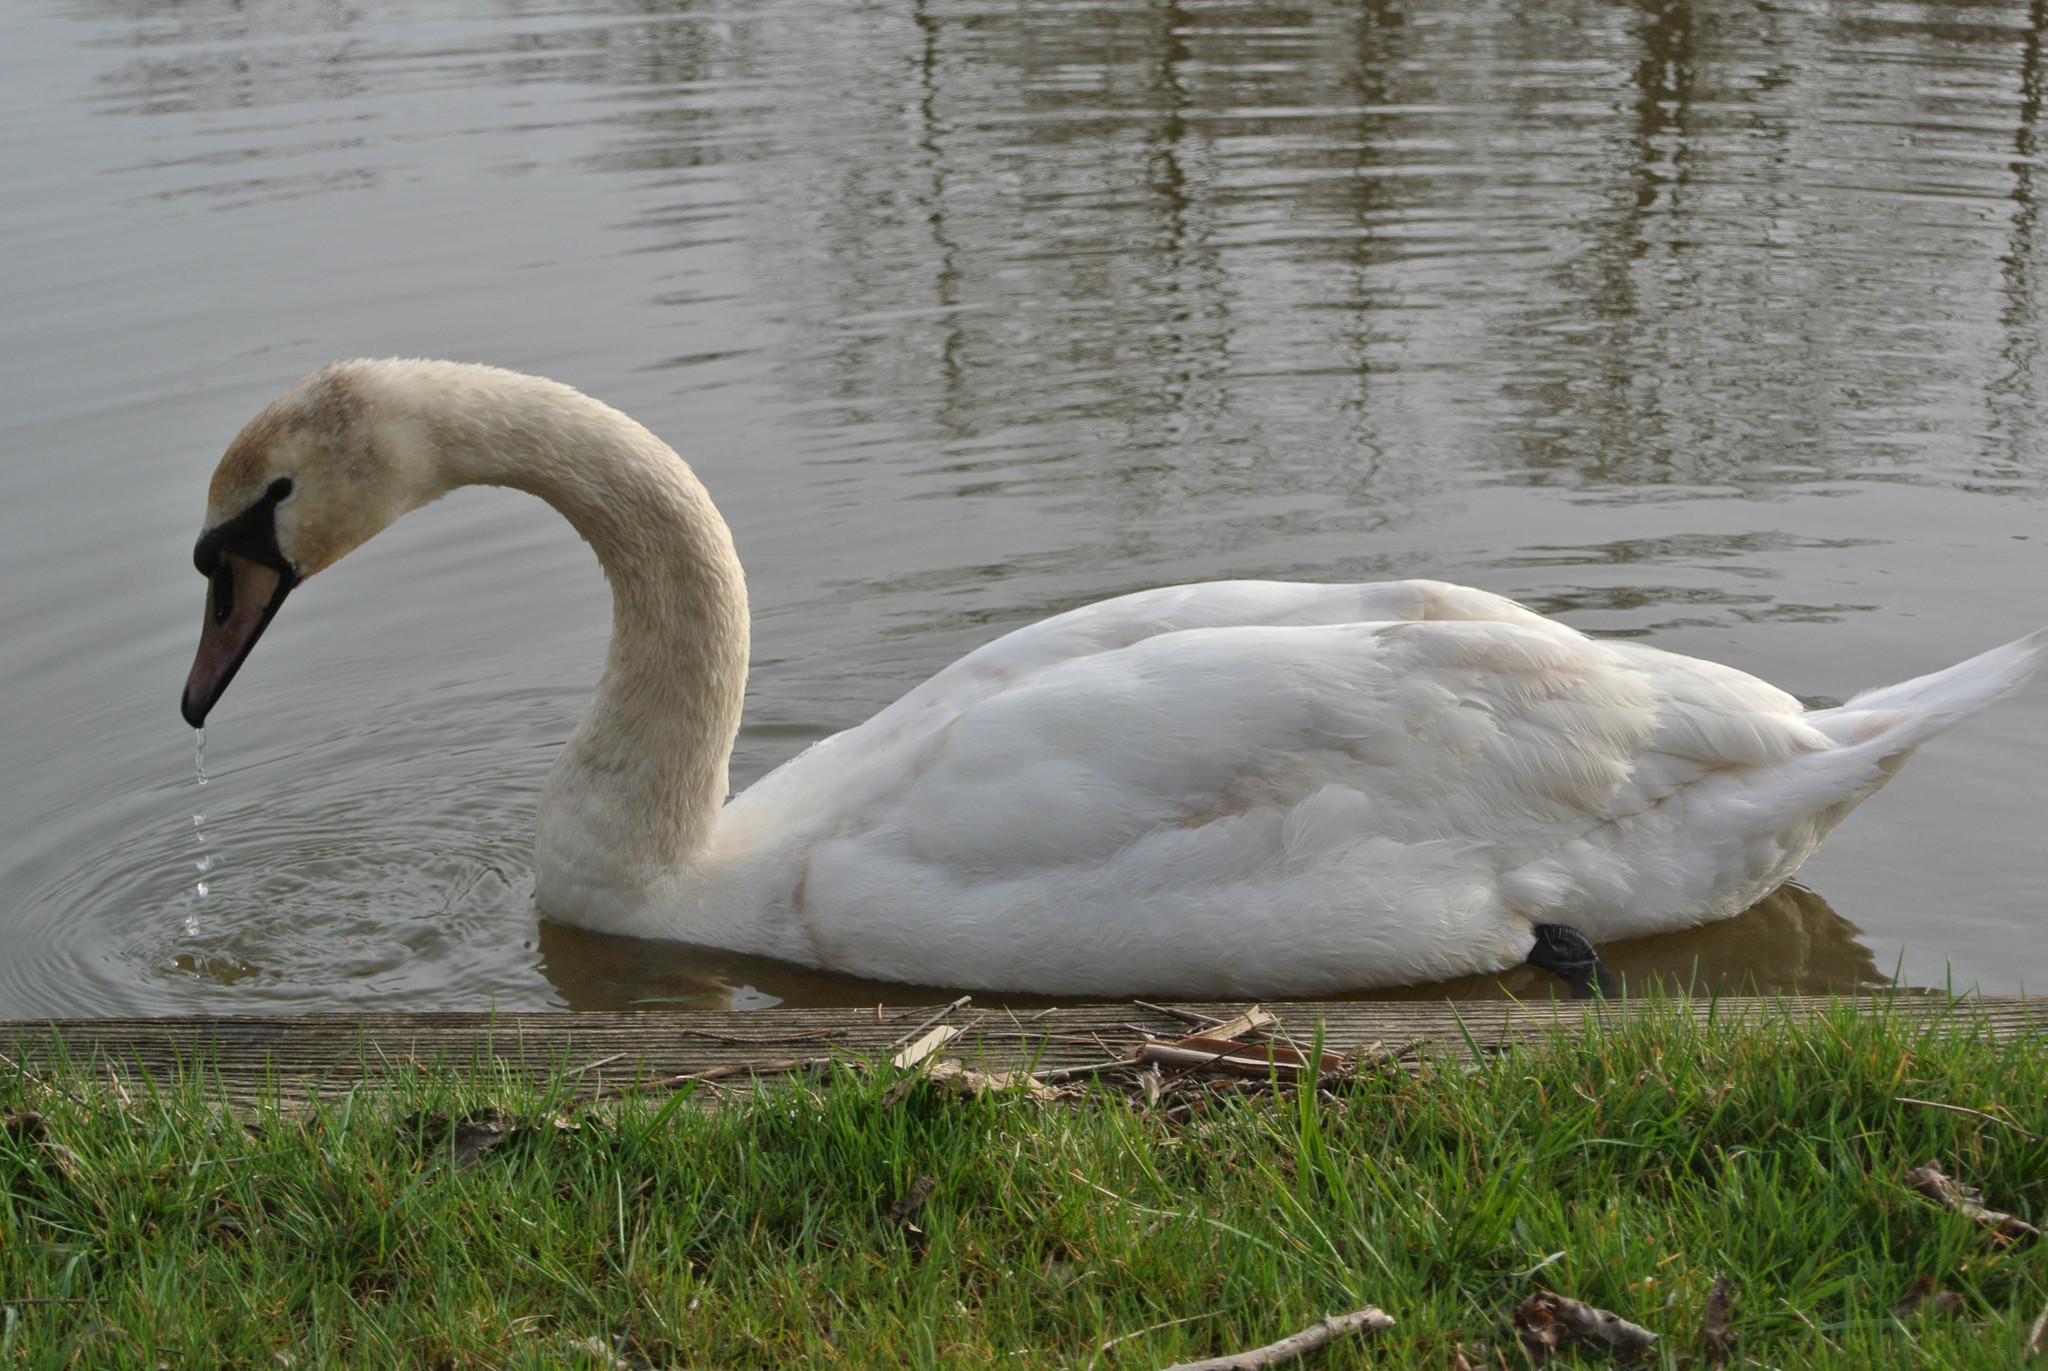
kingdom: Animalia
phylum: Chordata
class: Aves
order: Anseriformes
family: Anatidae
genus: Cygnus
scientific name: Cygnus olor
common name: Mute swan
